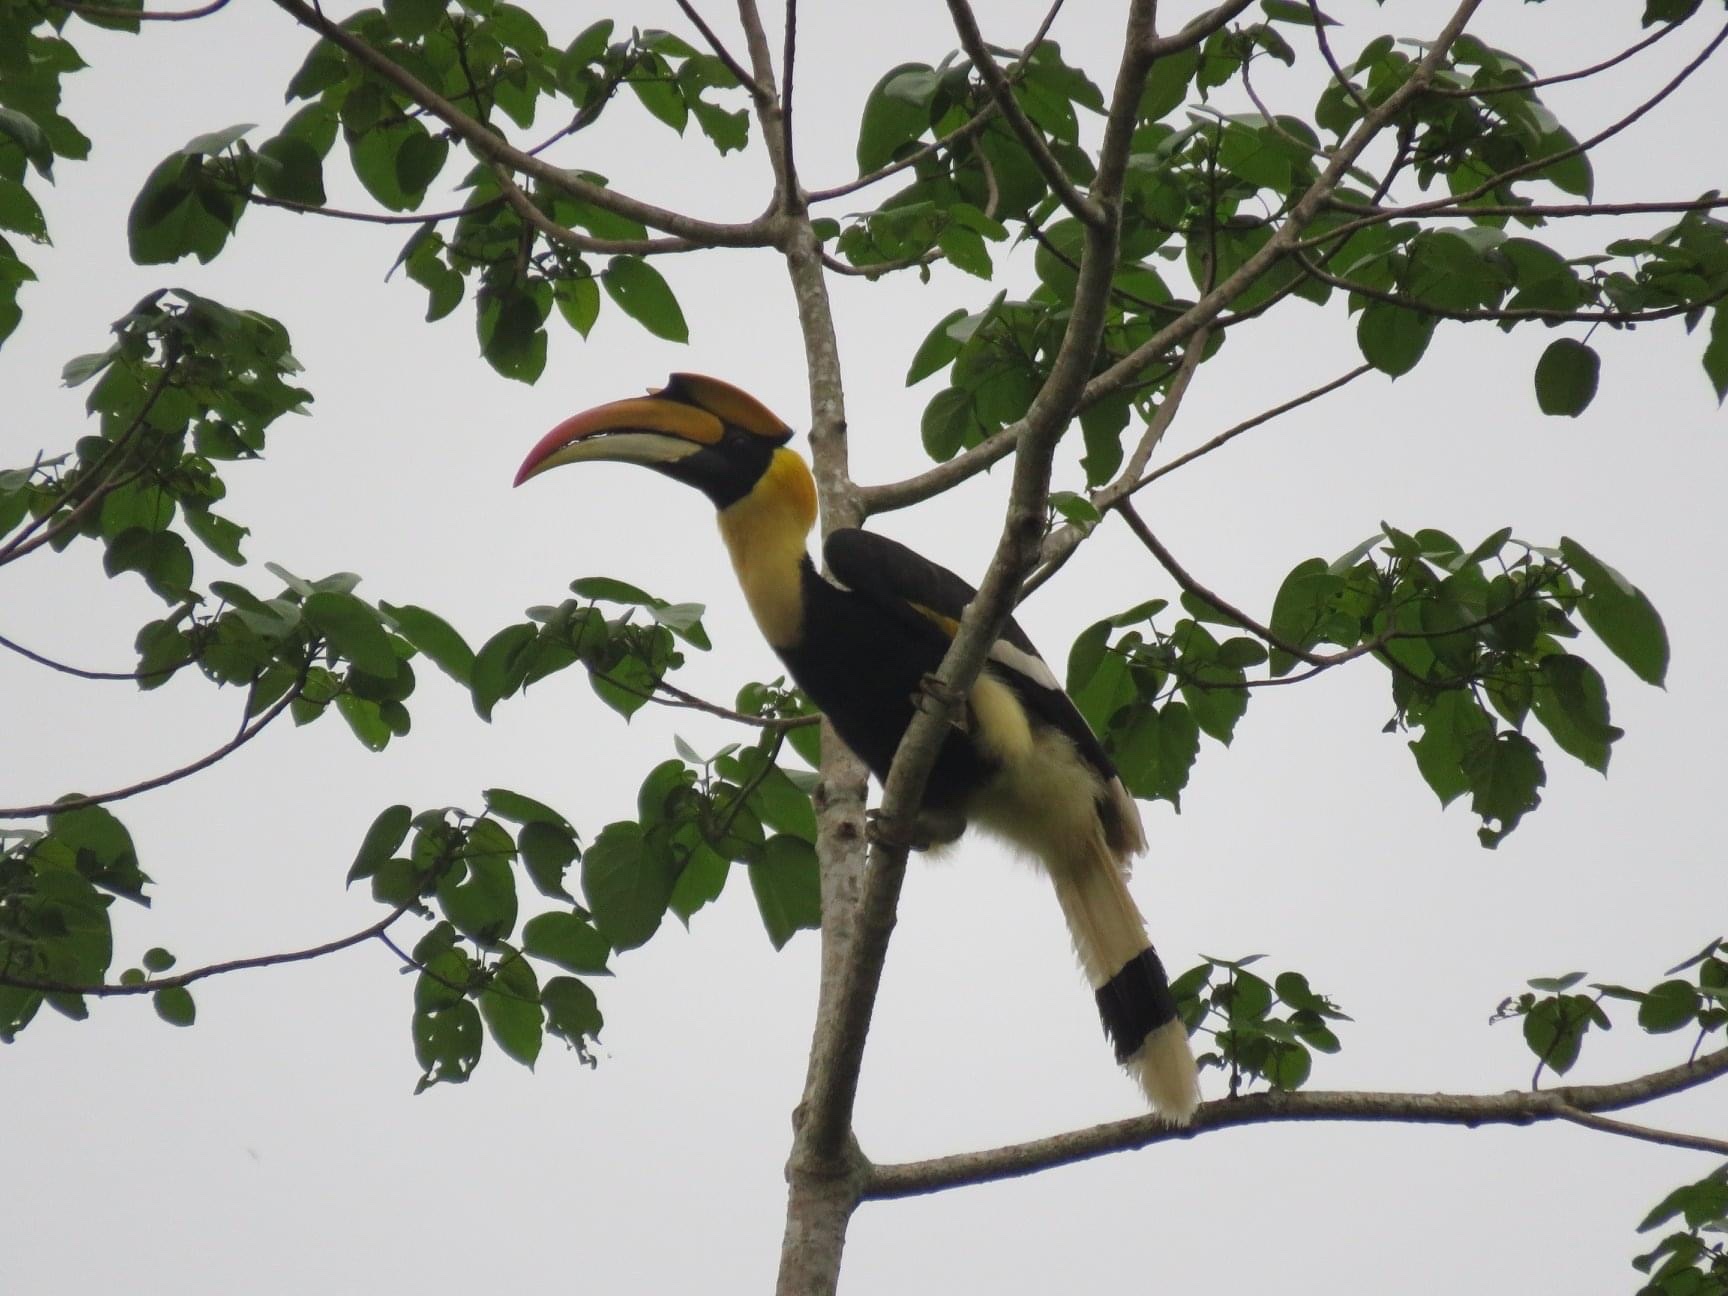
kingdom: Animalia
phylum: Chordata
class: Aves
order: Bucerotiformes
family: Bucerotidae
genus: Buceros
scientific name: Buceros bicornis
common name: Great hornbill
